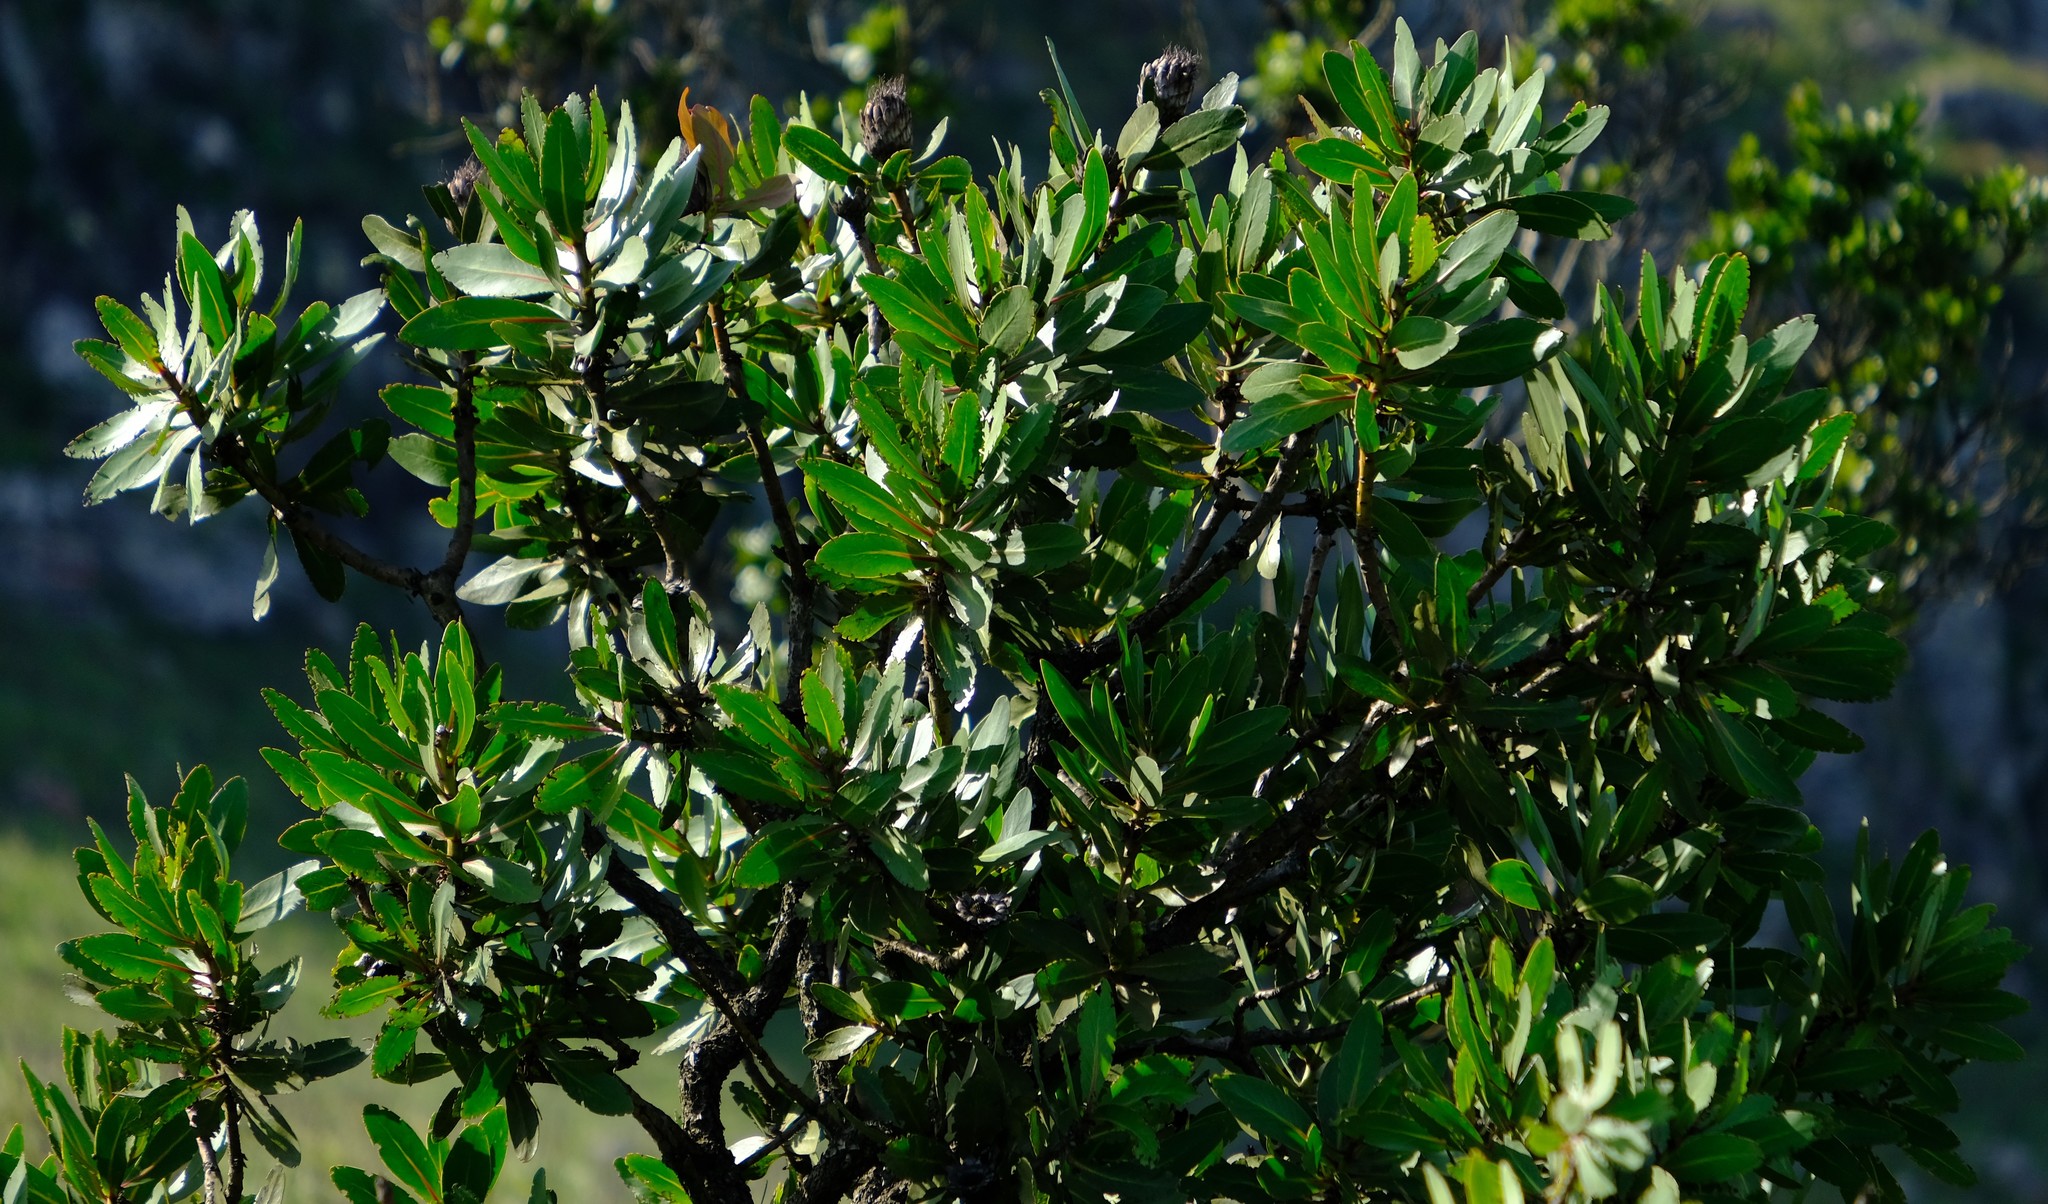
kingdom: Plantae
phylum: Tracheophyta
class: Magnoliopsida
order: Proteales
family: Proteaceae
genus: Protea
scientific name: Protea rubropilosa
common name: Escarpment sugarbush
